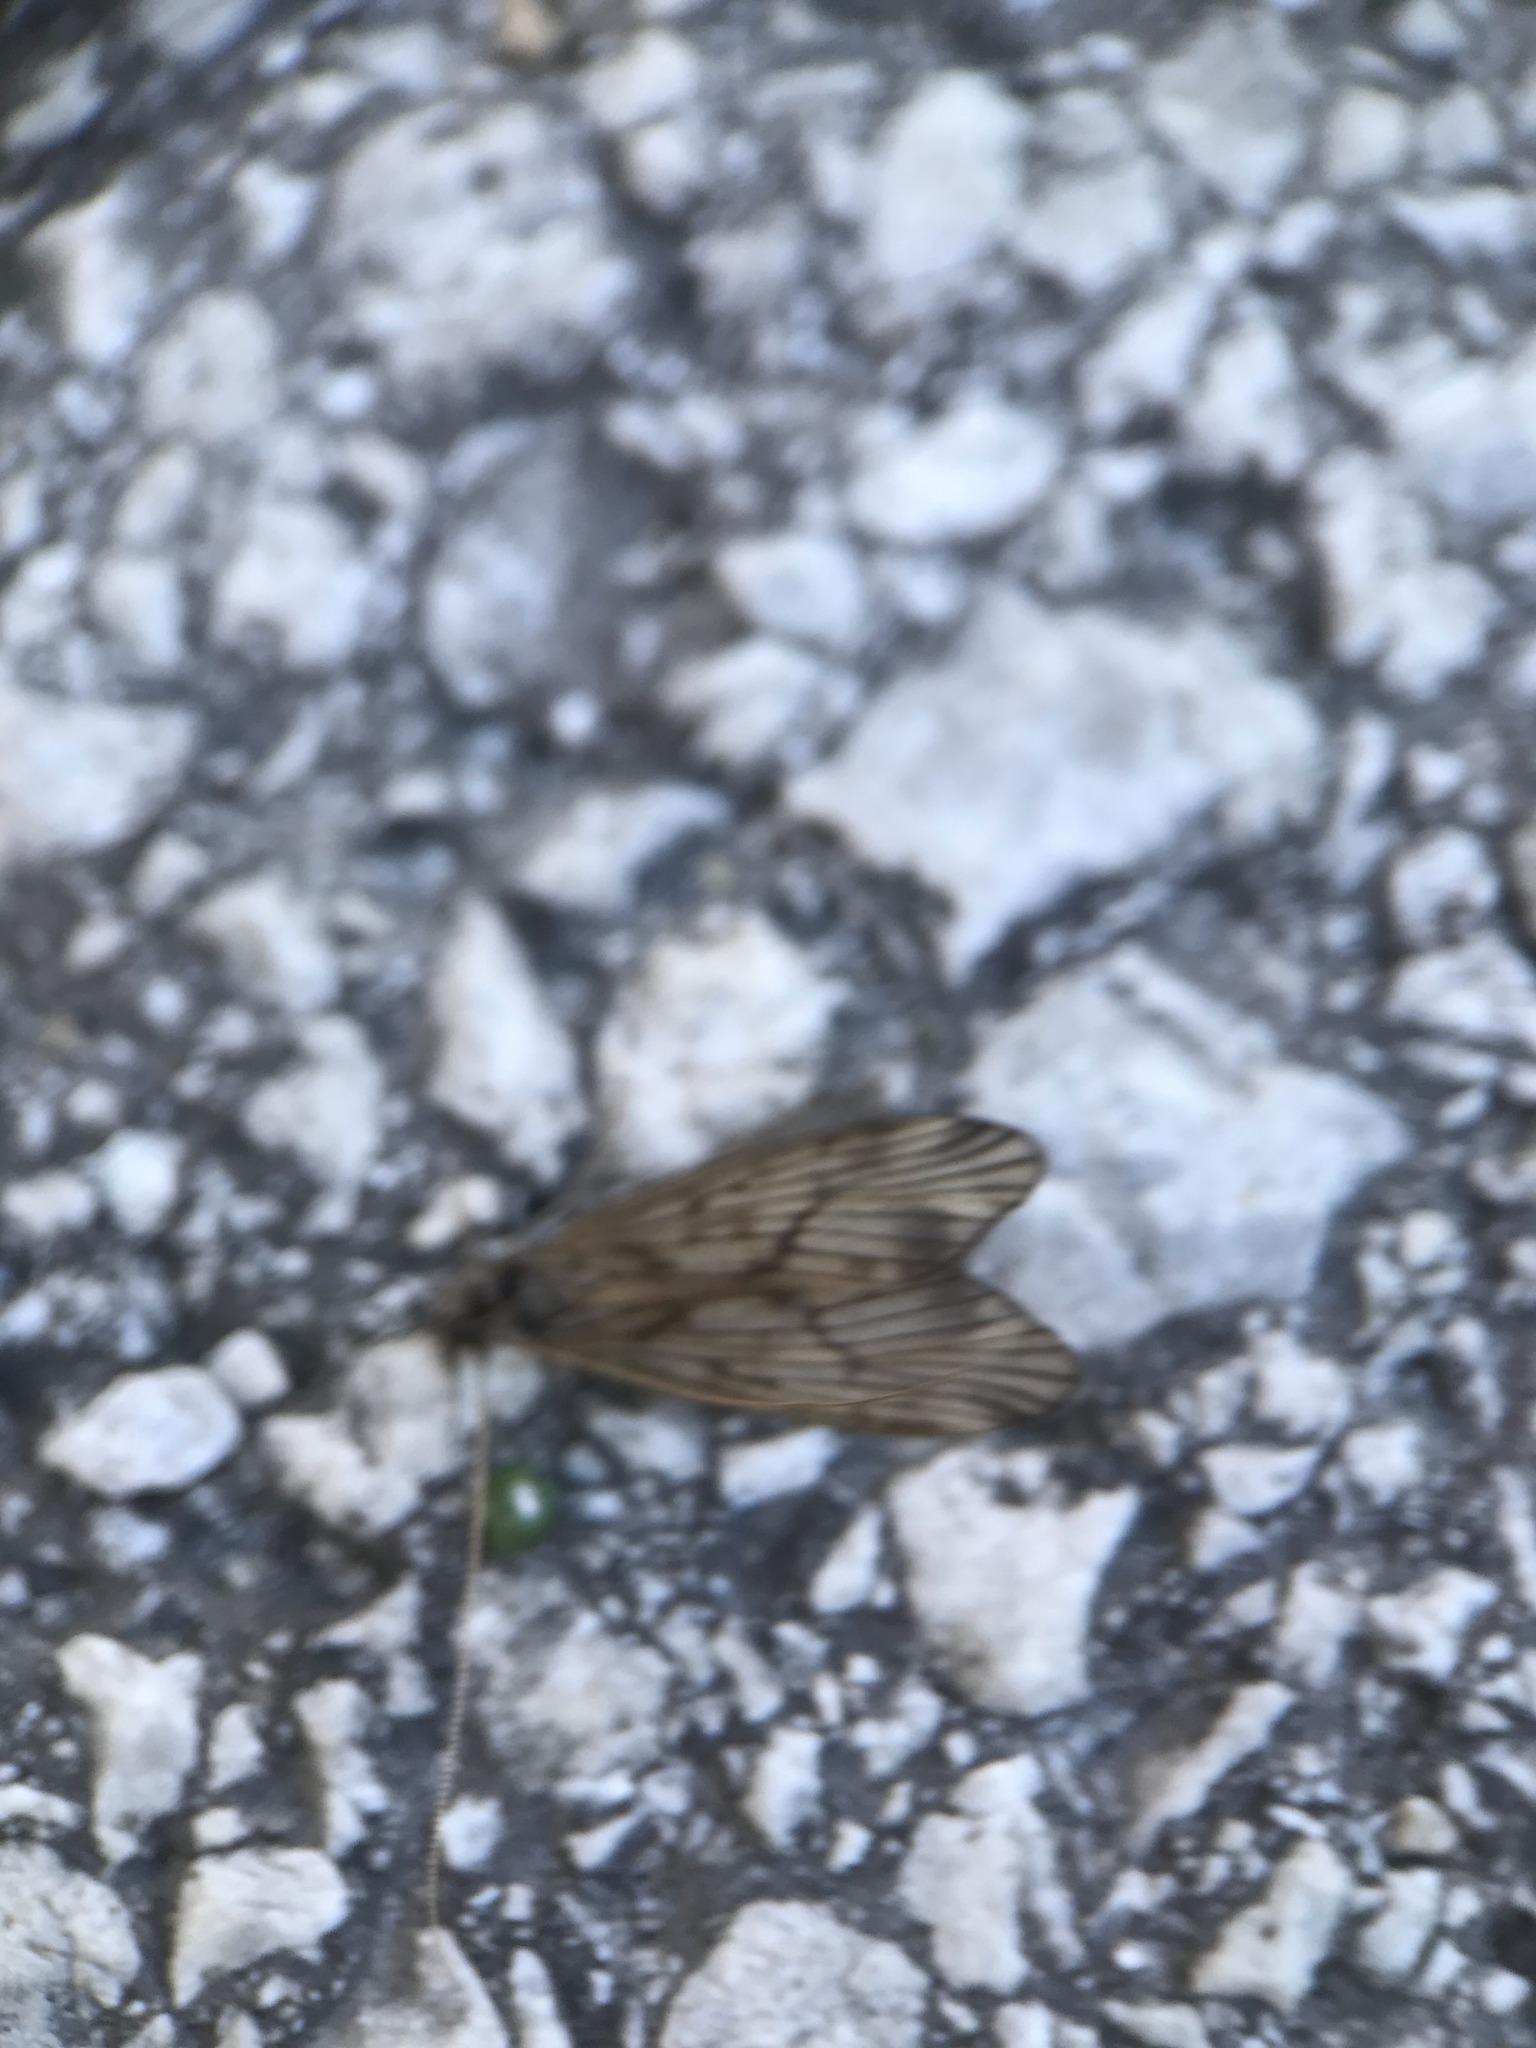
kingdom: Animalia
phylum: Arthropoda
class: Insecta
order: Trichoptera
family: Odontoceridae
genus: Odontocerum
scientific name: Odontocerum albicorne
